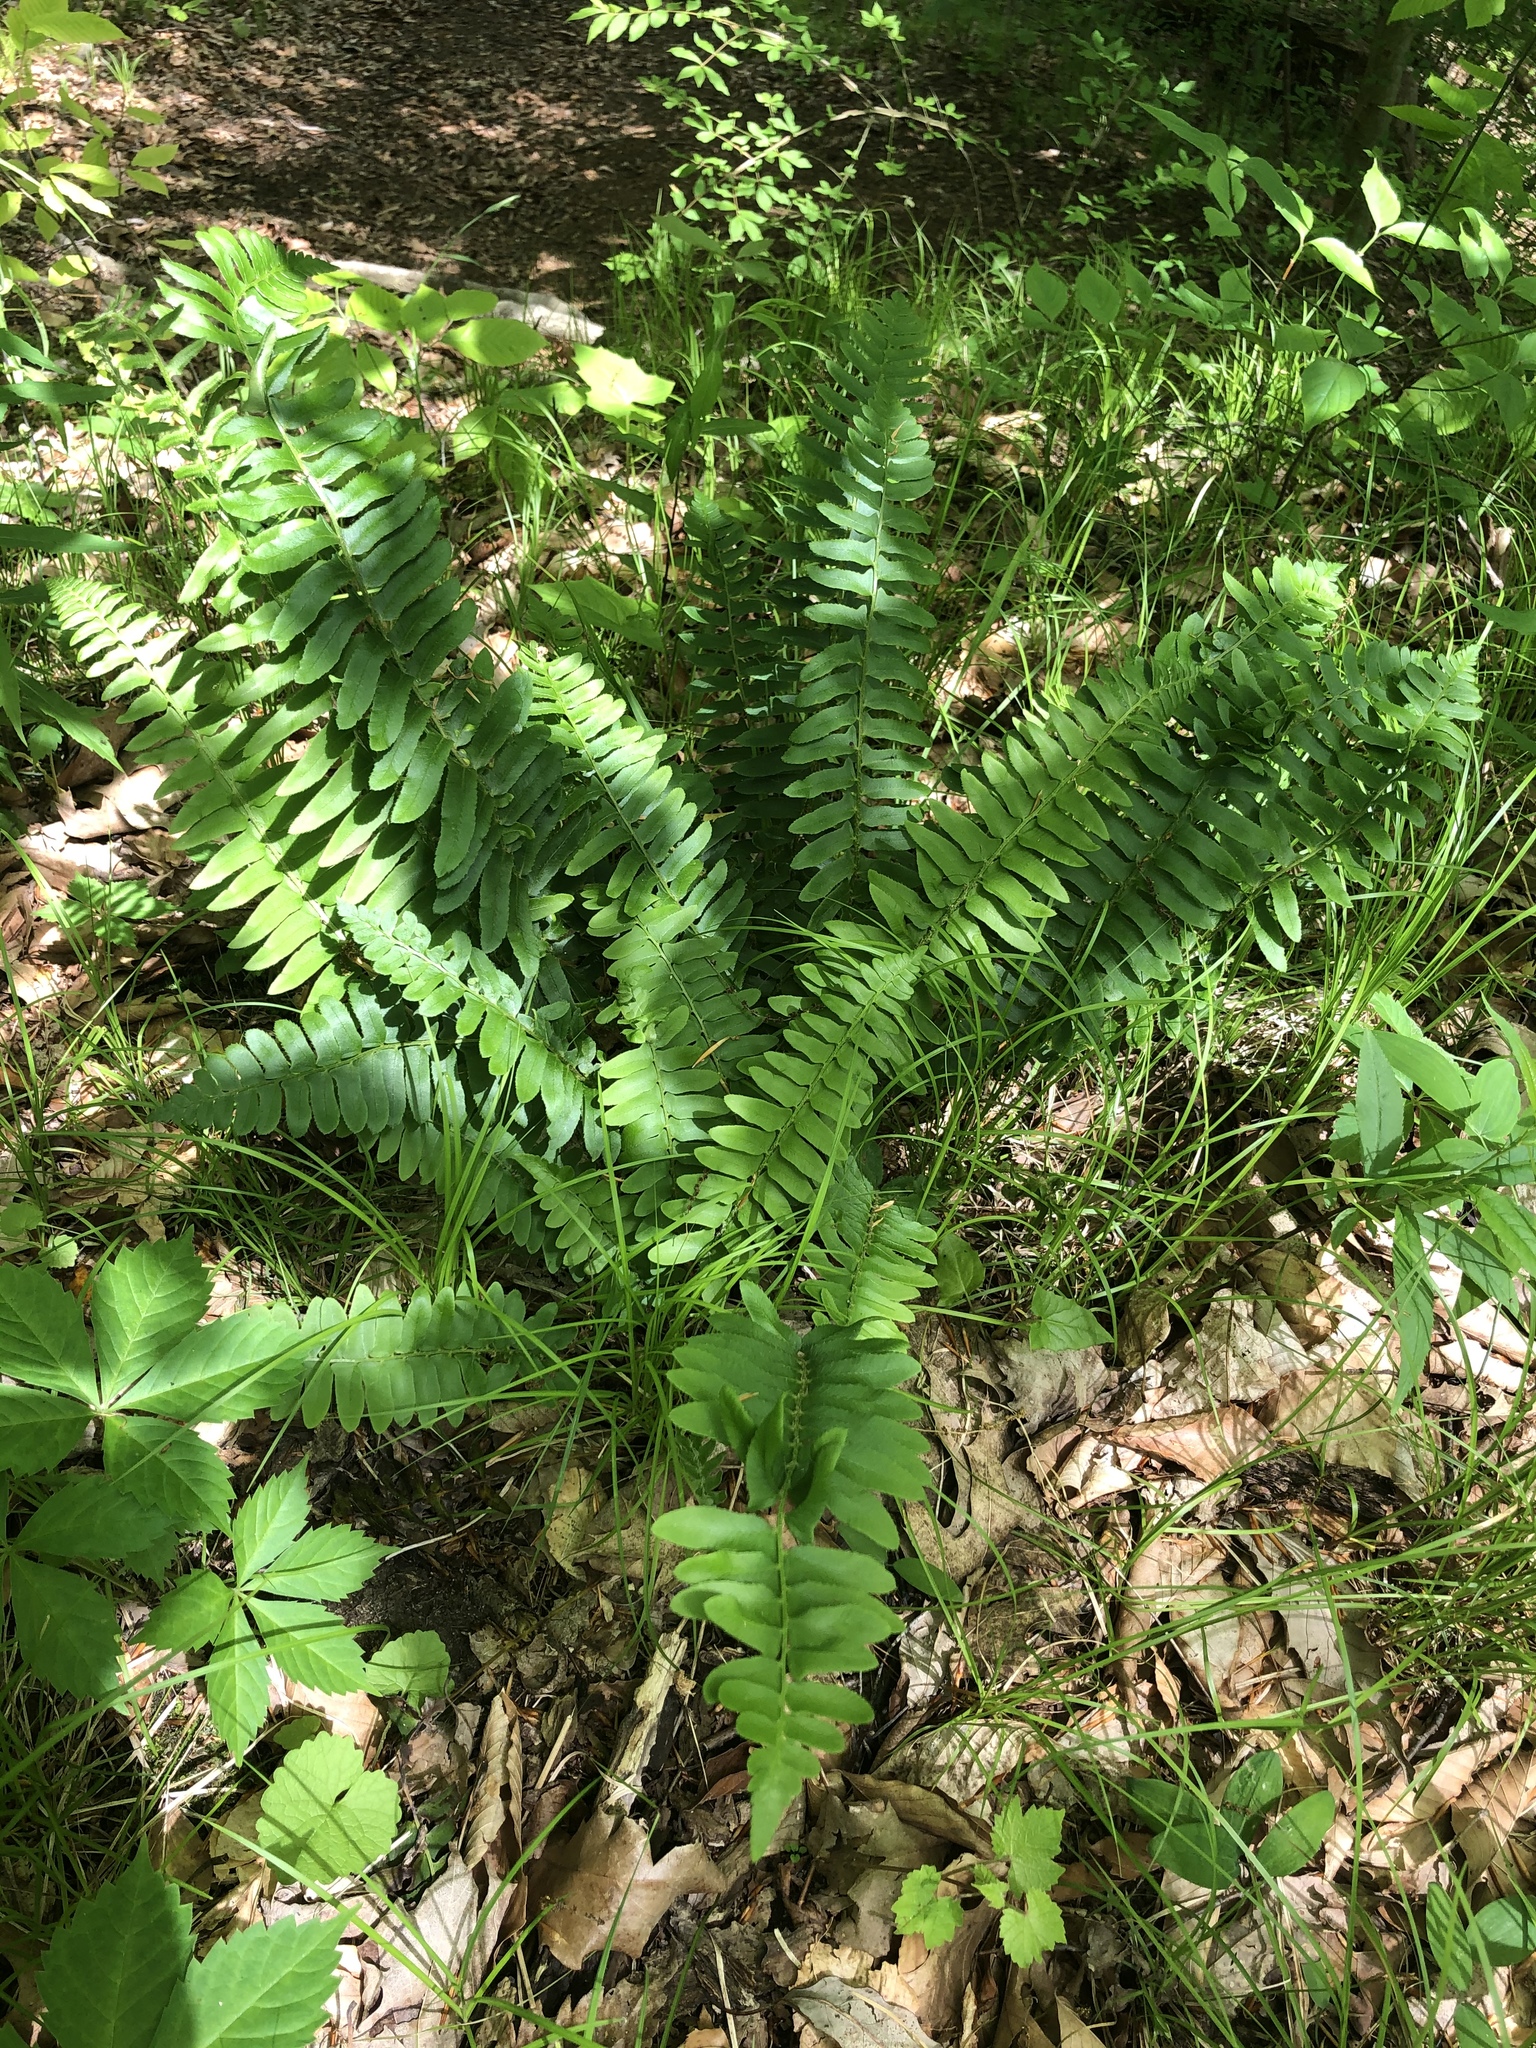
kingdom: Plantae
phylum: Tracheophyta
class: Polypodiopsida
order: Polypodiales
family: Dryopteridaceae
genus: Polystichum
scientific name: Polystichum acrostichoides
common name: Christmas fern
